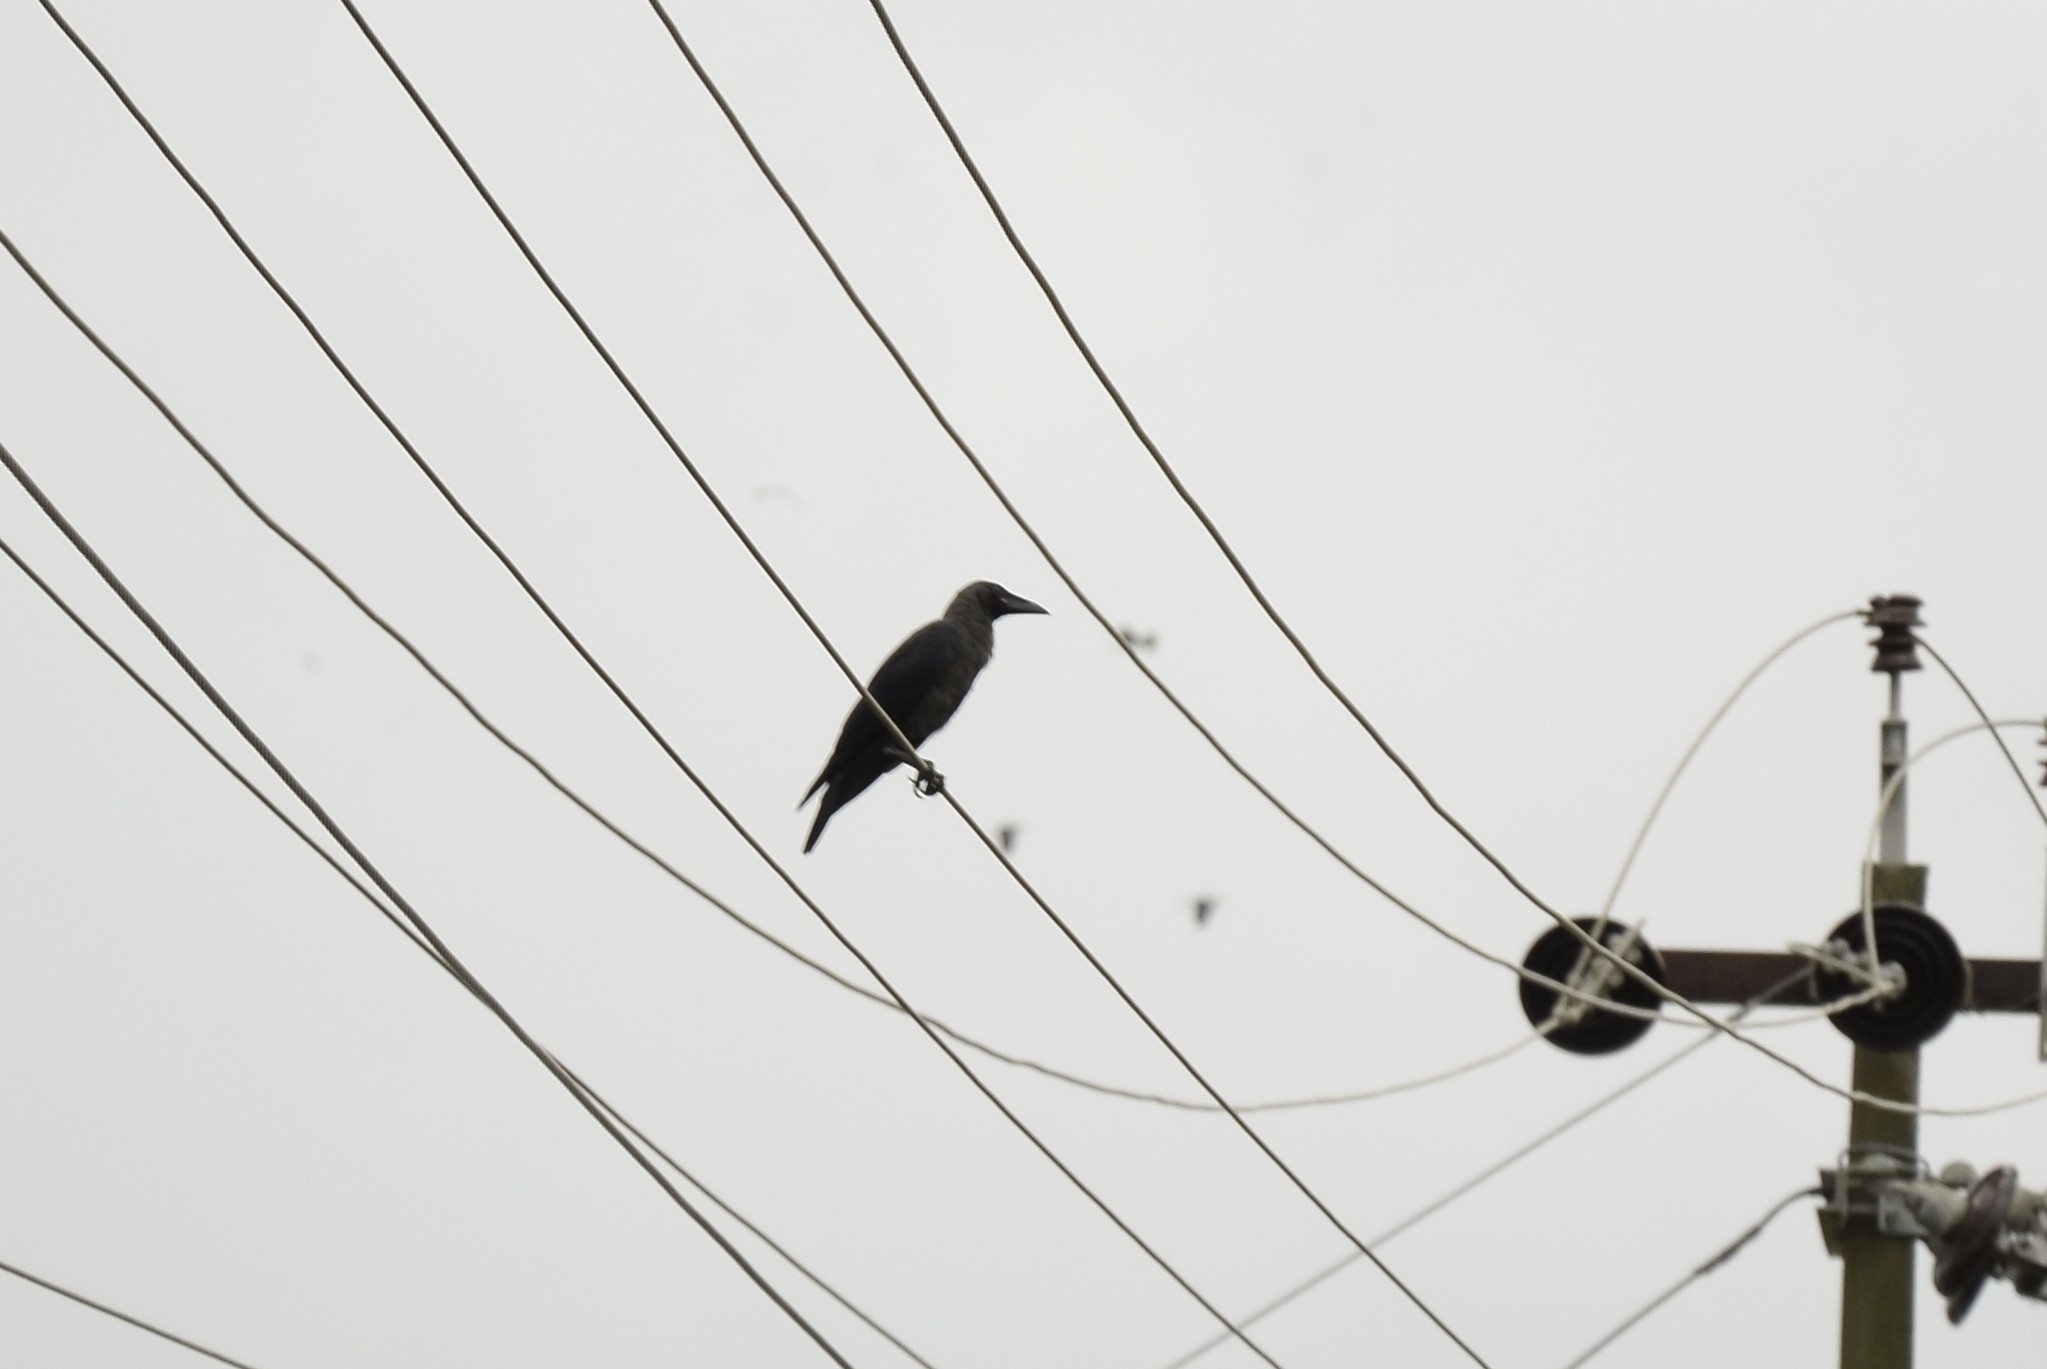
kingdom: Animalia
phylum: Chordata
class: Aves
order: Passeriformes
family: Corvidae
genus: Corvus
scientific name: Corvus splendens
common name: House crow
